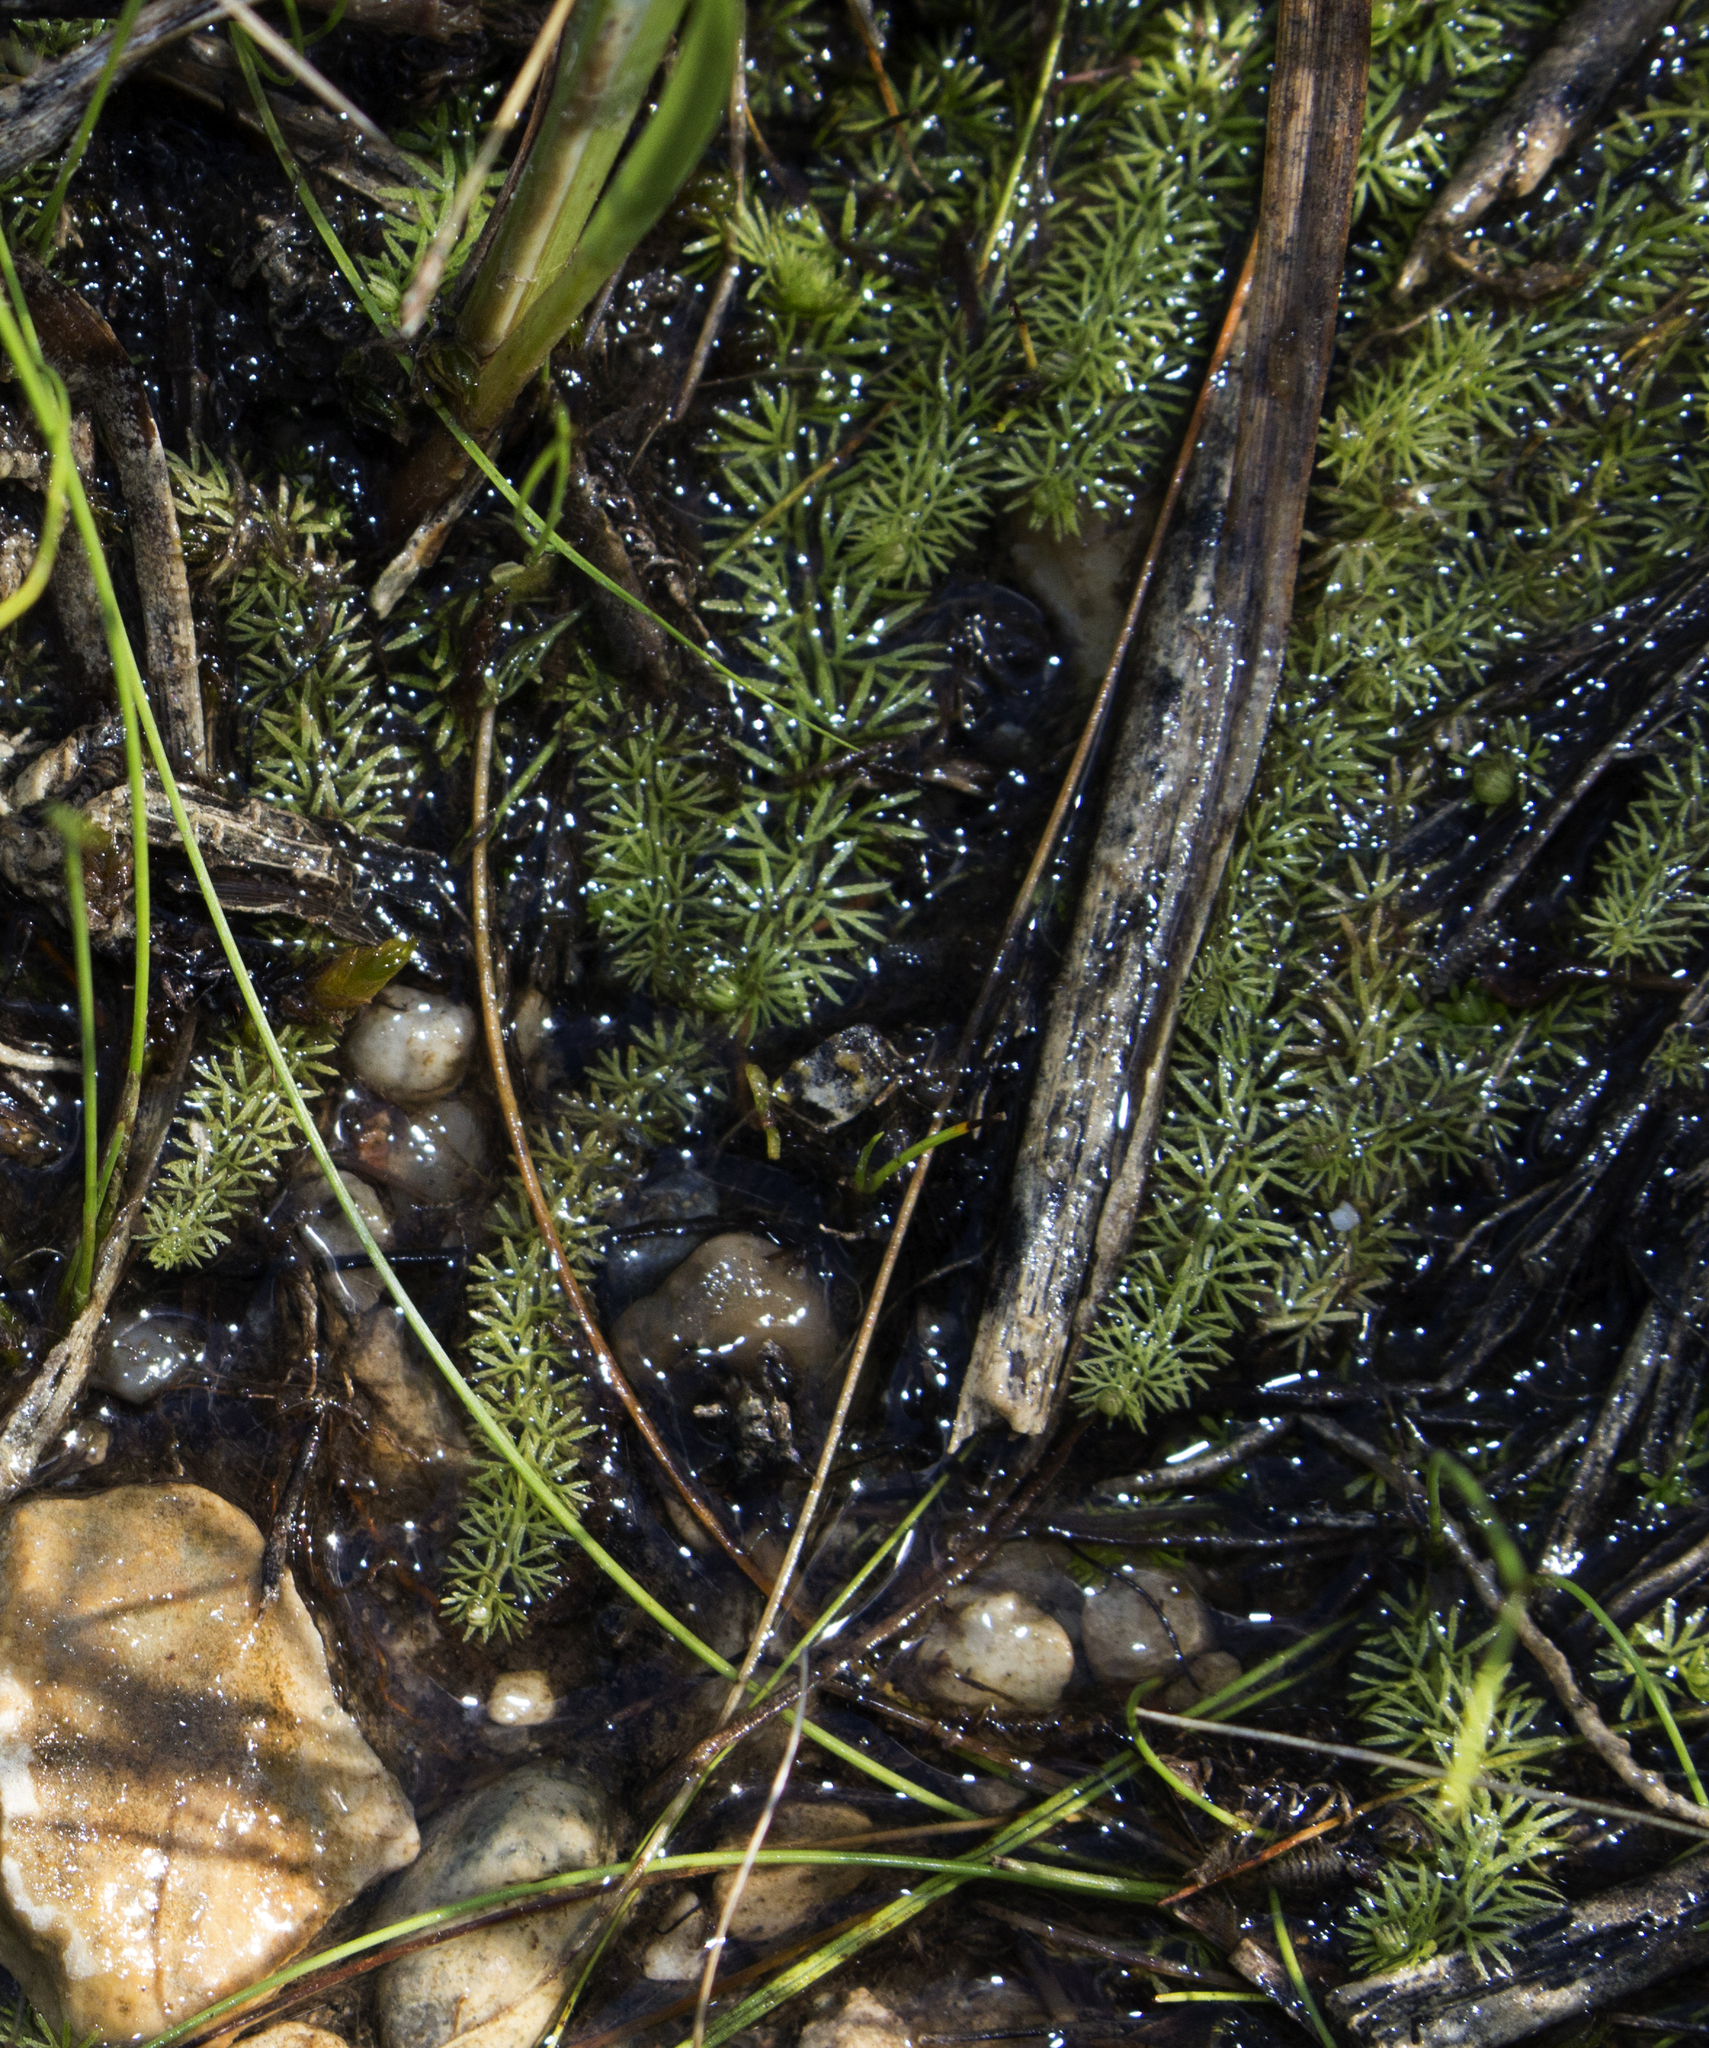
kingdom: Plantae
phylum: Tracheophyta
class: Magnoliopsida
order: Lamiales
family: Lentibulariaceae
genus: Utricularia
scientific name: Utricularia intermedia
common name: Intermediate bladderwort
